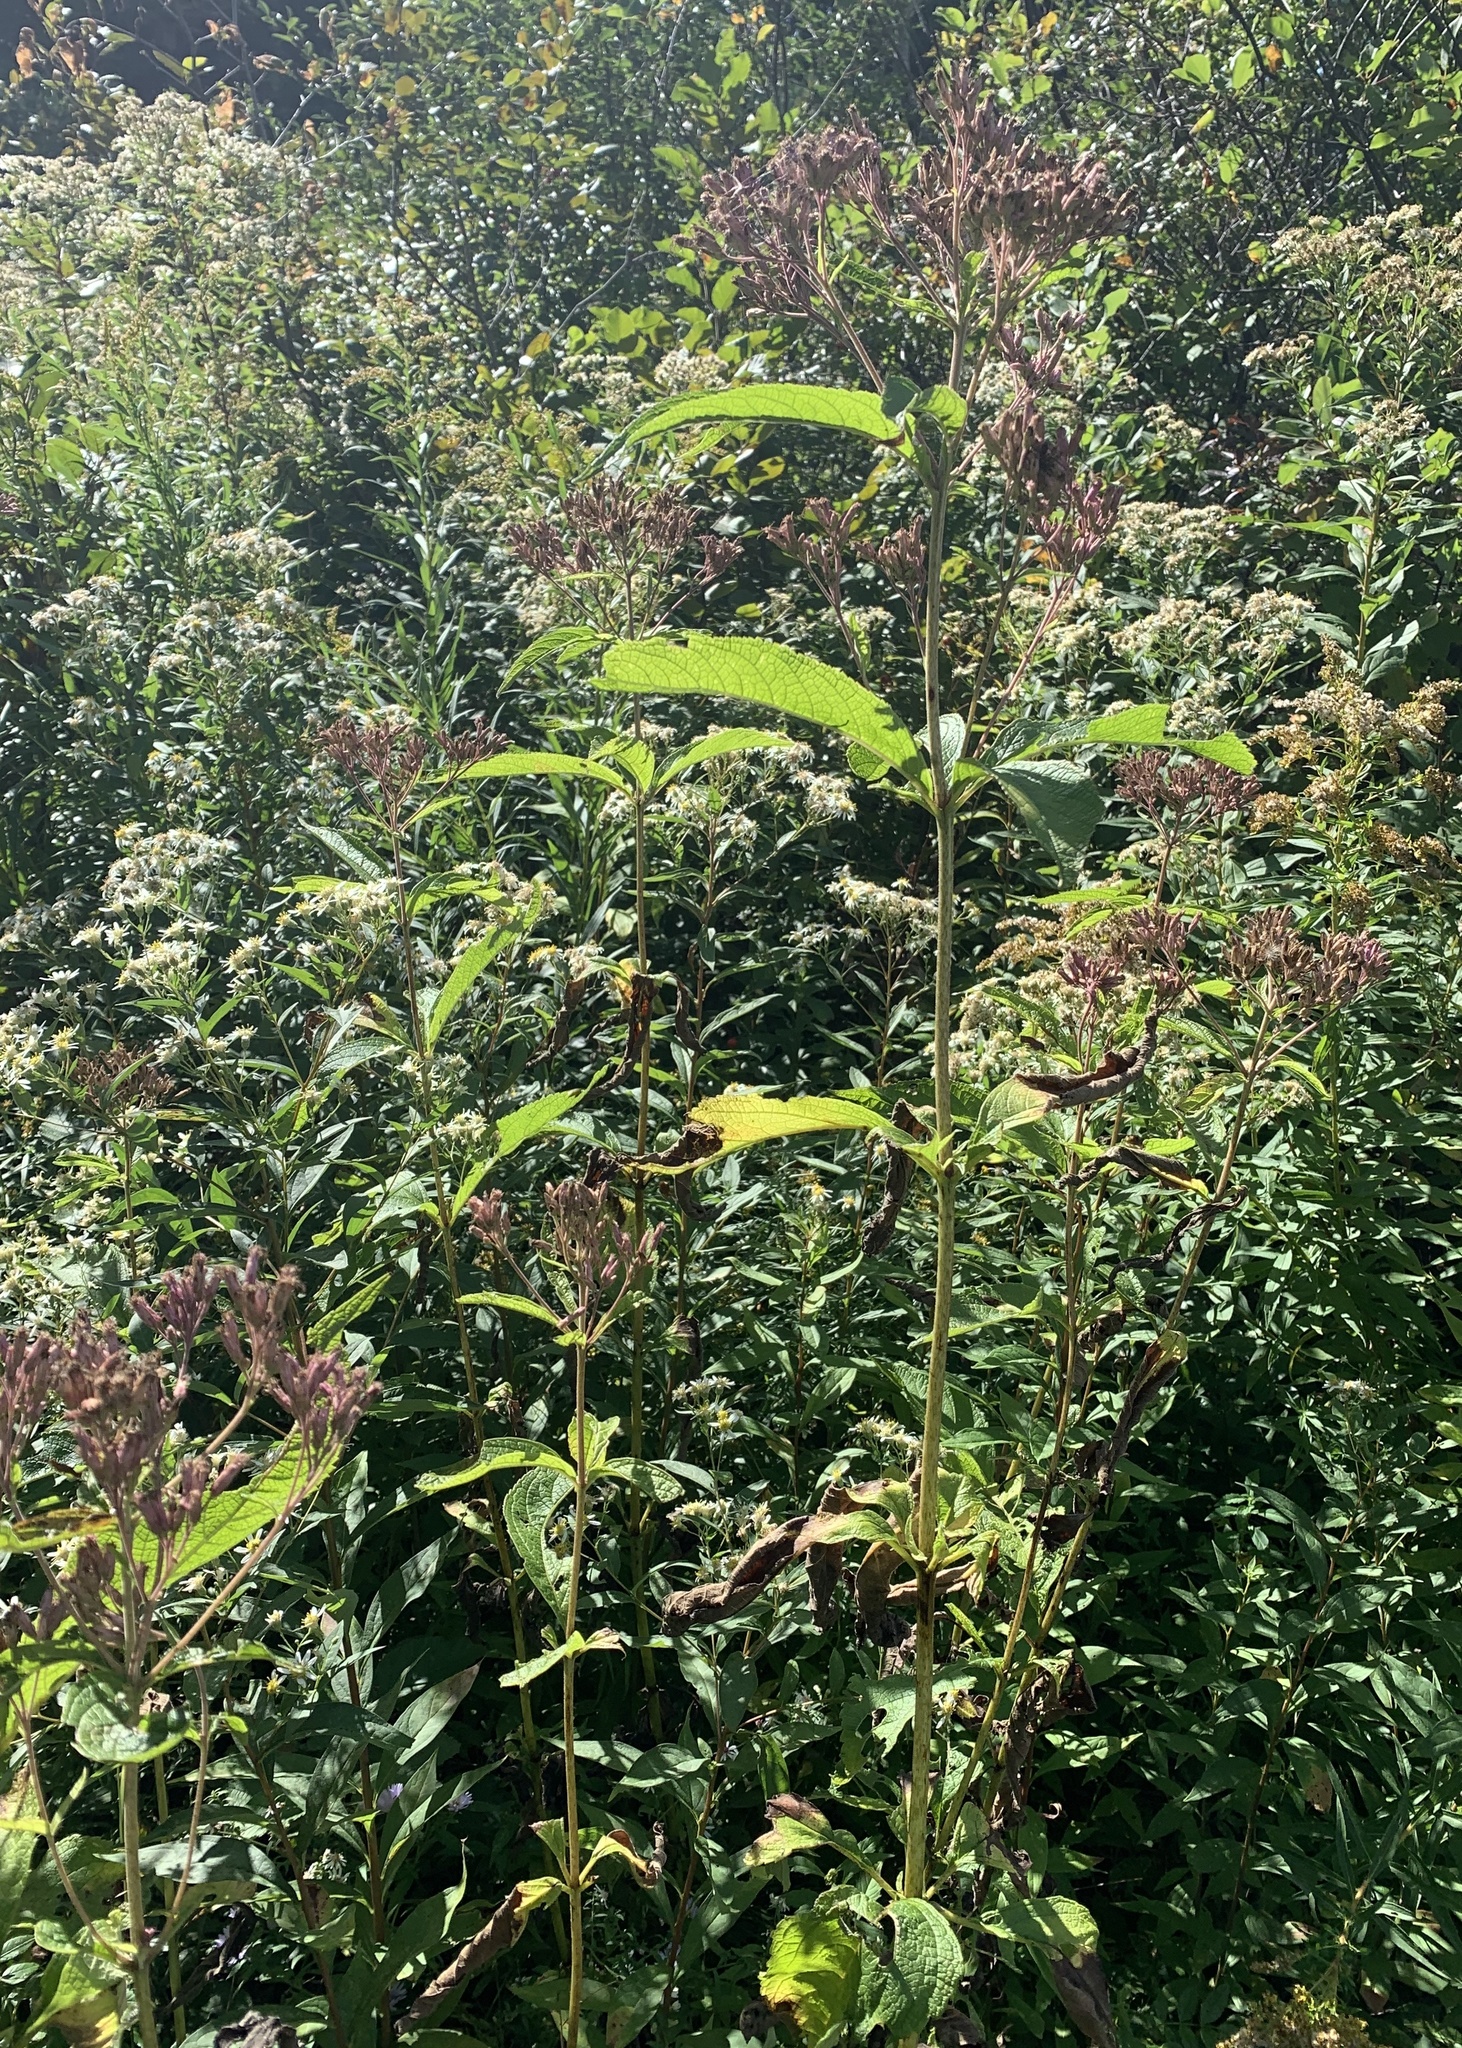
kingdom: Plantae
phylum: Tracheophyta
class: Magnoliopsida
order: Asterales
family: Asteraceae
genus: Eutrochium
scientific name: Eutrochium maculatum
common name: Spotted joe pye weed
